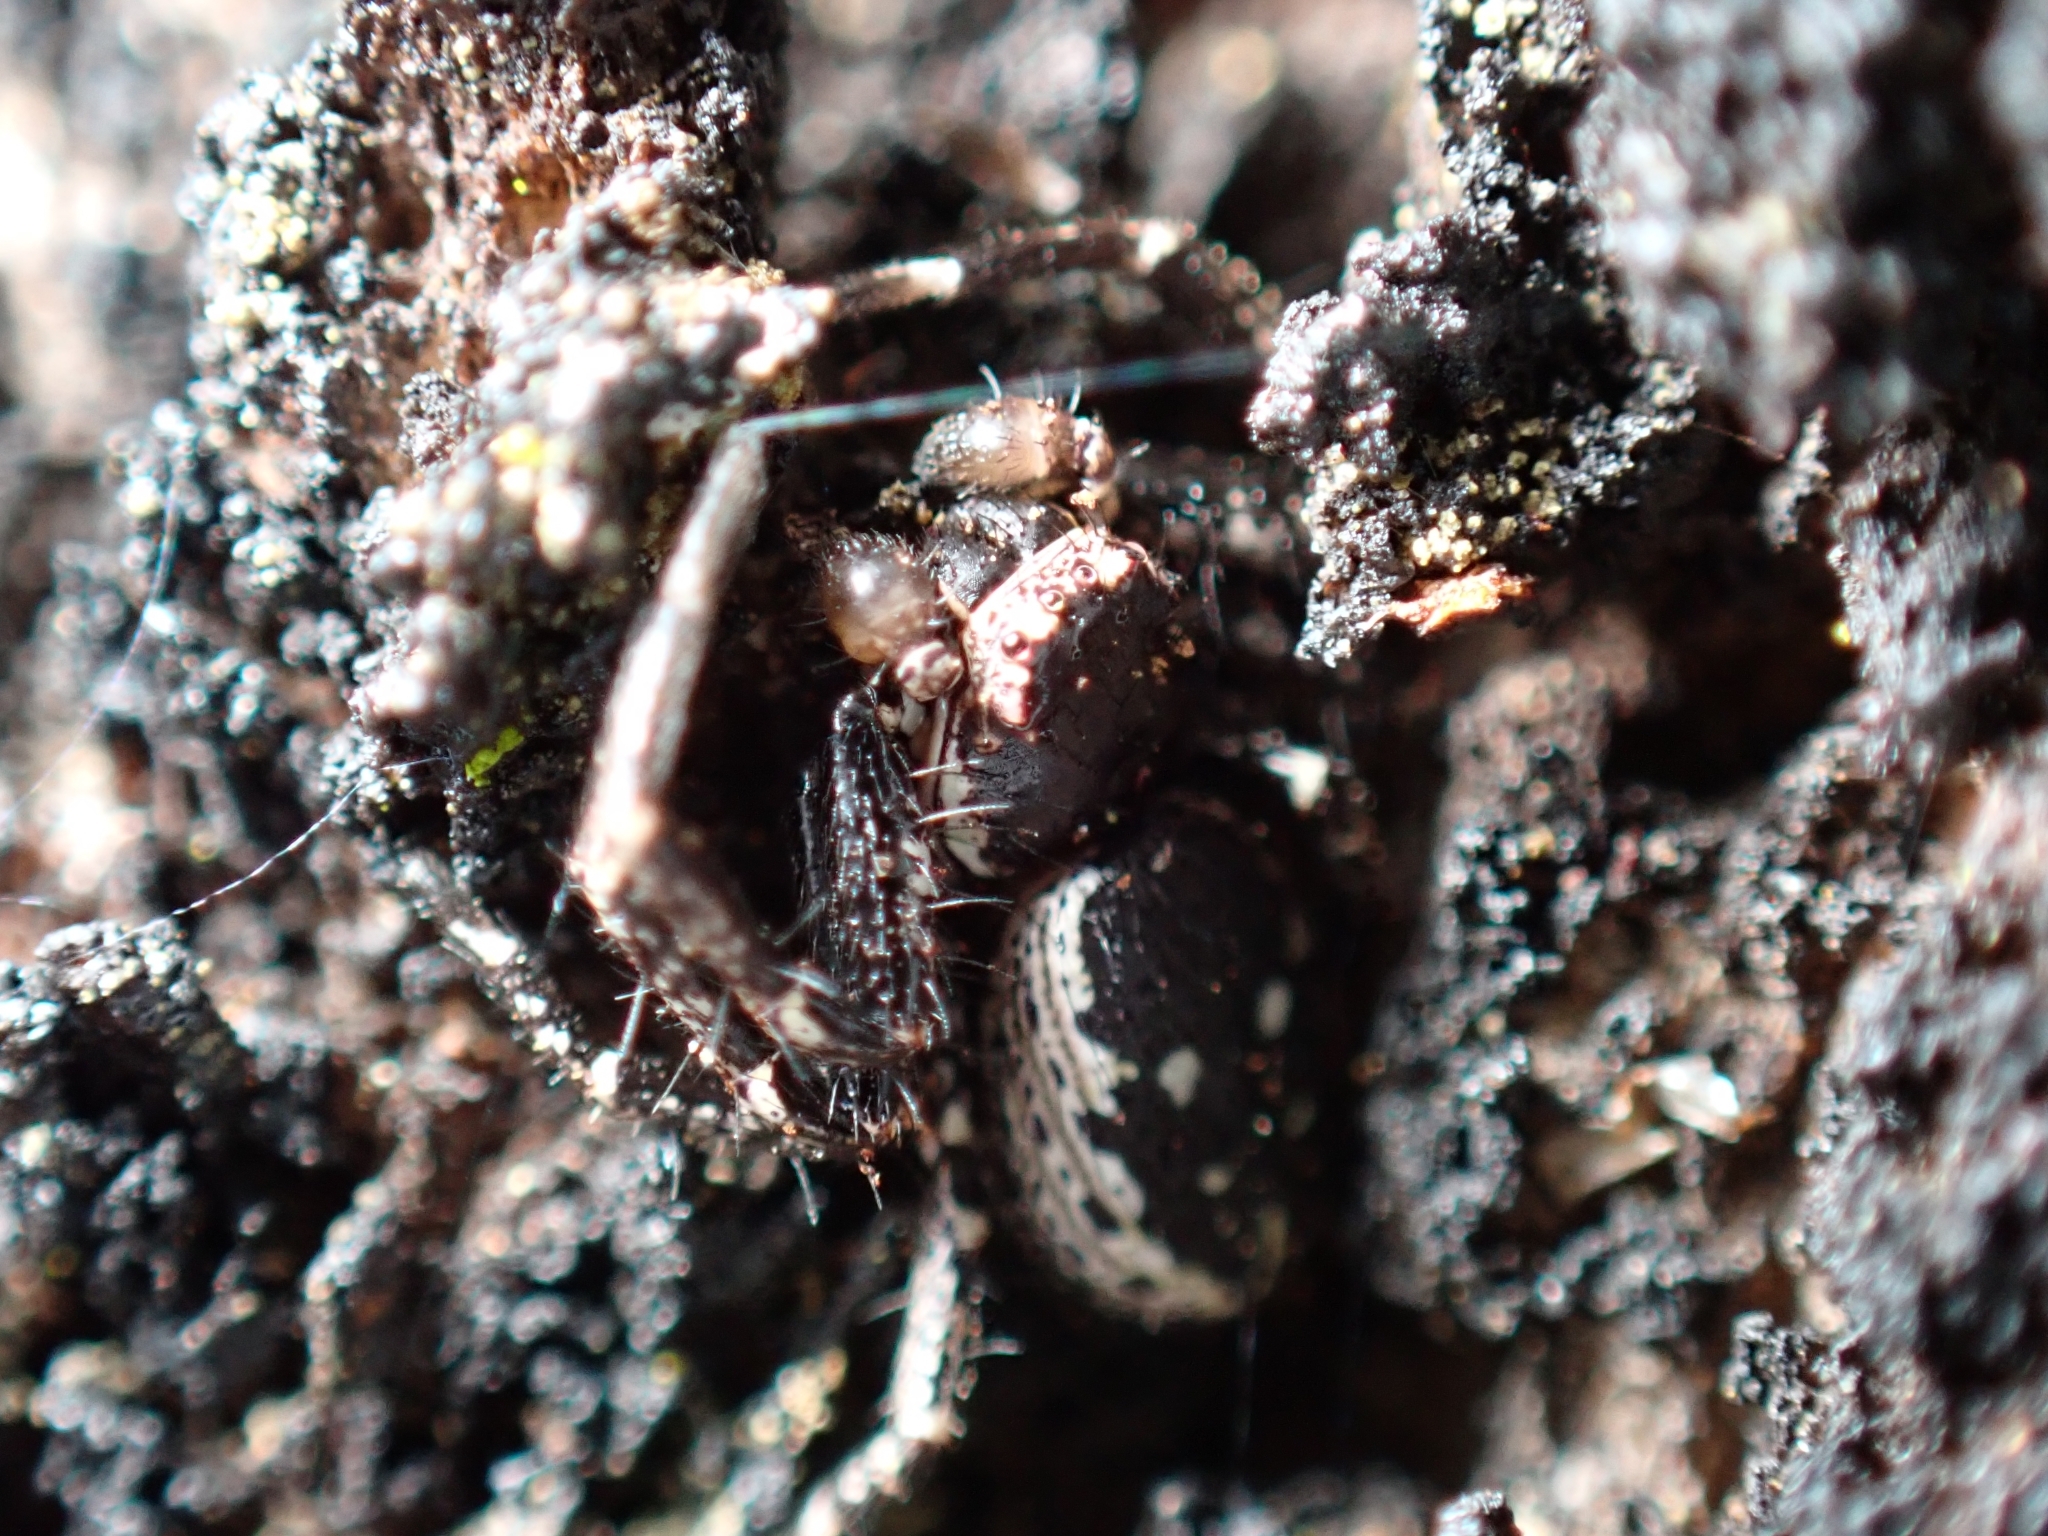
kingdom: Animalia
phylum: Arthropoda
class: Arachnida
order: Araneae
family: Thomisidae
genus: Tharpyna
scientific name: Tharpyna campestrata
